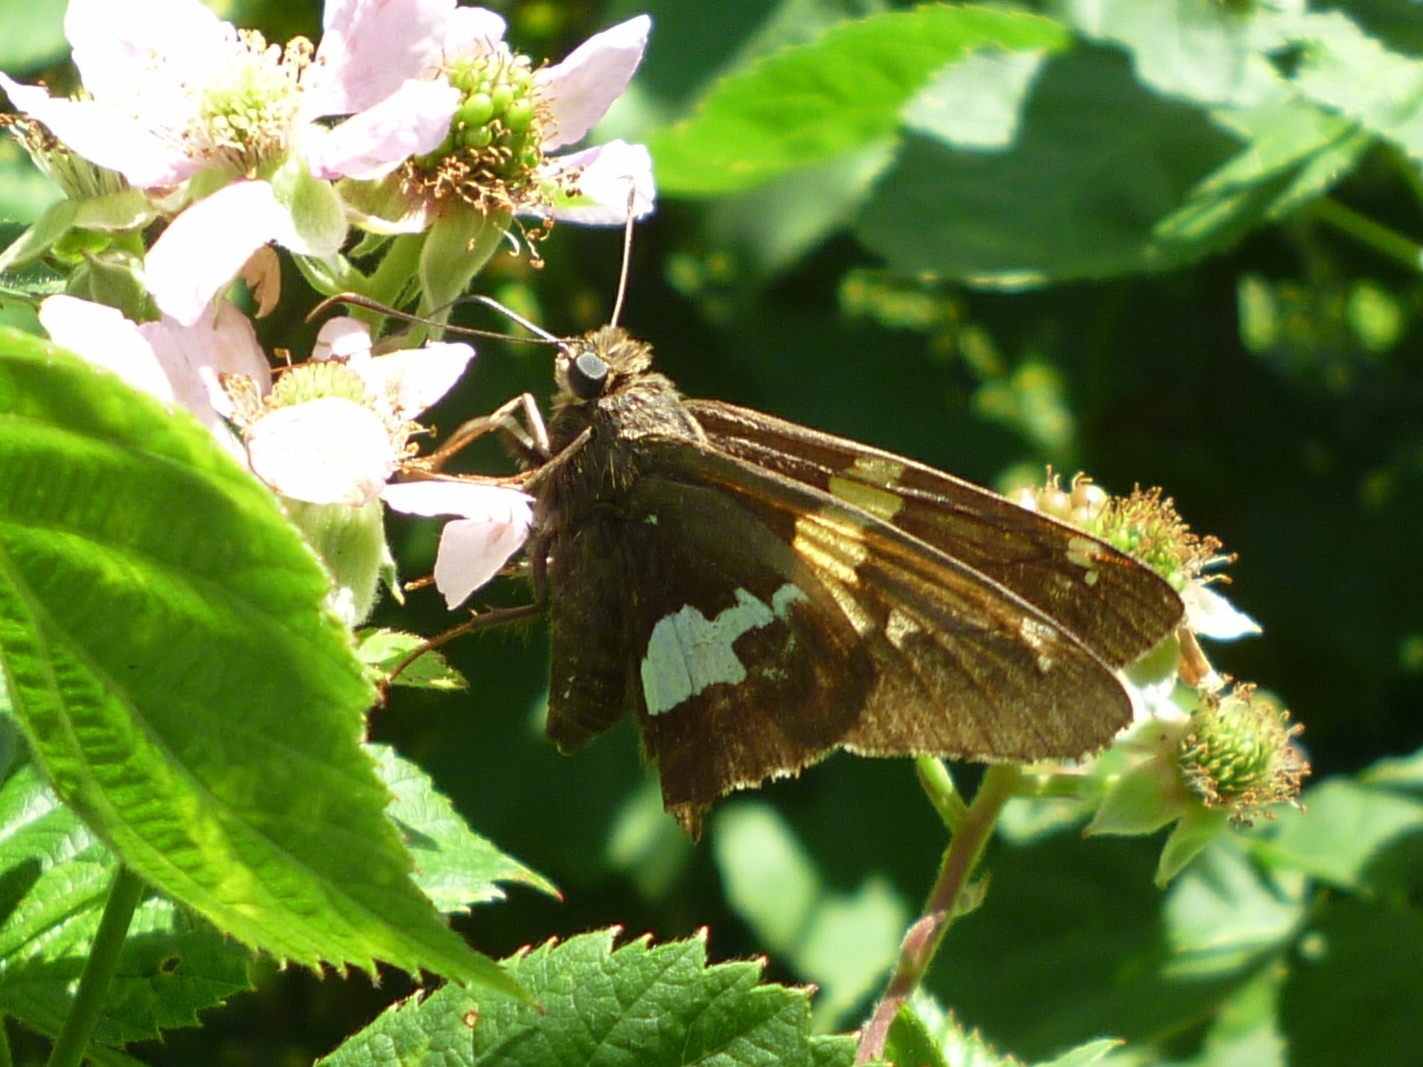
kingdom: Animalia
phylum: Arthropoda
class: Insecta
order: Lepidoptera
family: Hesperiidae
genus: Epargyreus
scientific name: Epargyreus clarus
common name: Silver-spotted skipper
